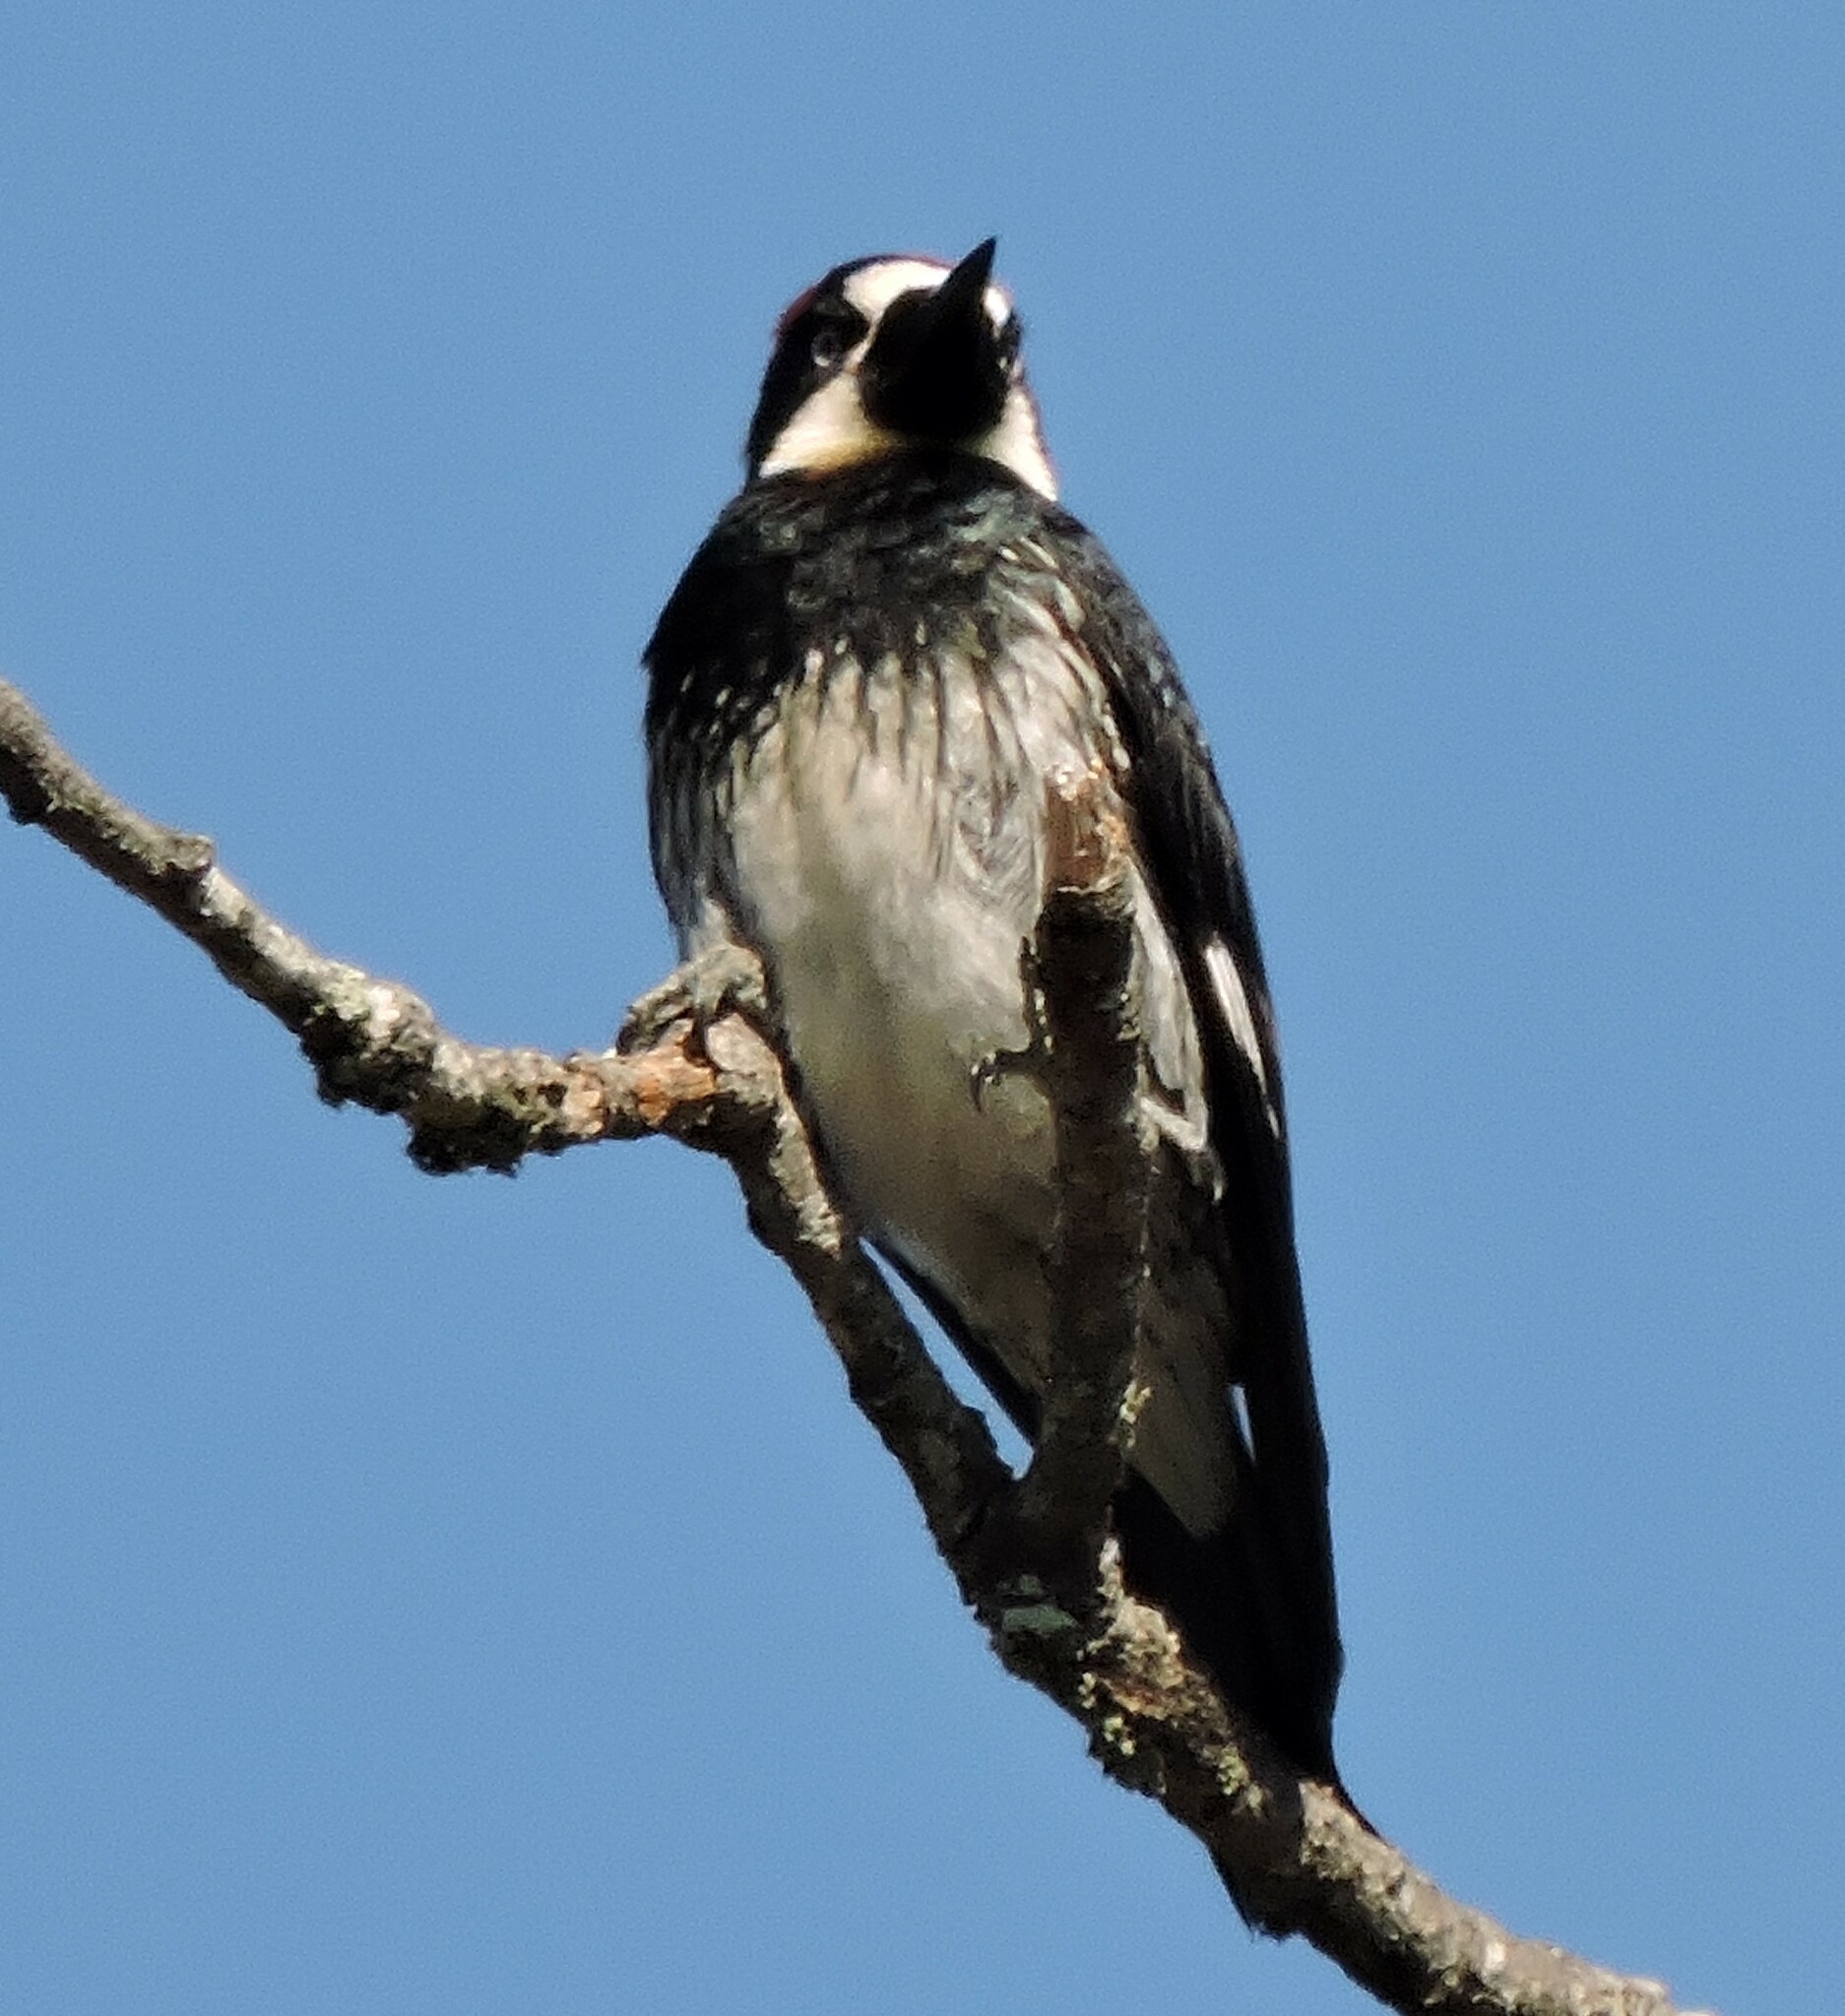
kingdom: Animalia
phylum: Chordata
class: Aves
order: Piciformes
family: Picidae
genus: Melanerpes
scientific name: Melanerpes formicivorus
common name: Acorn woodpecker
